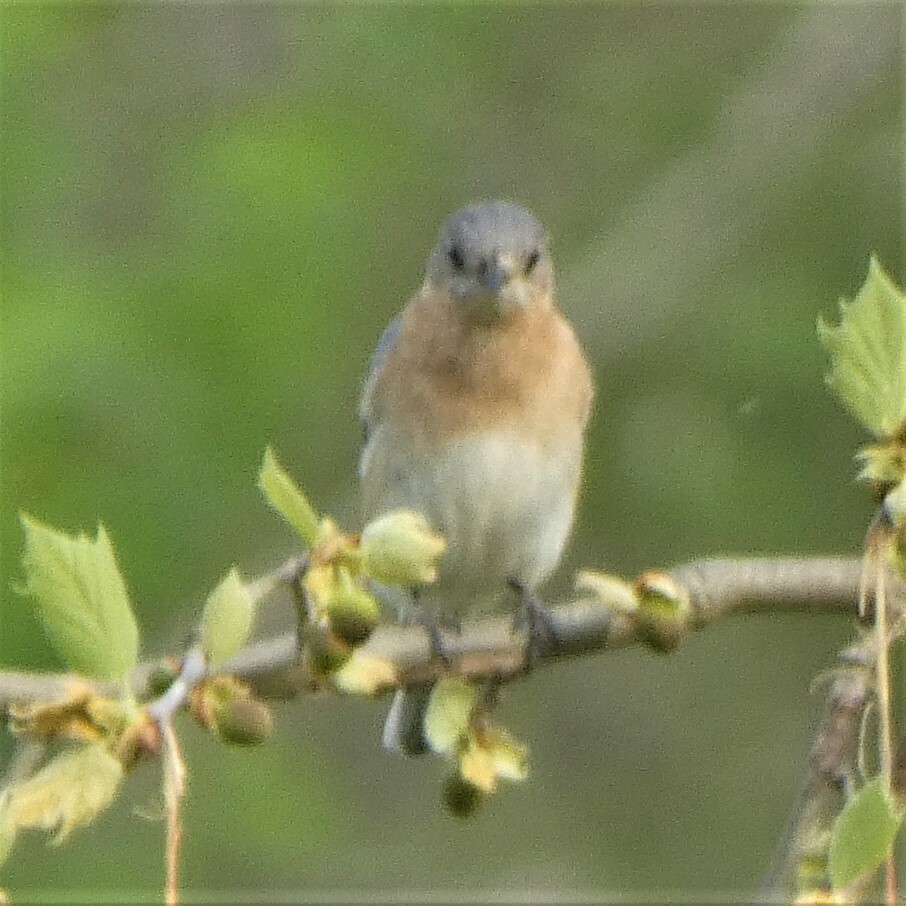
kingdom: Animalia
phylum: Chordata
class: Aves
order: Passeriformes
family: Turdidae
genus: Sialia
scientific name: Sialia sialis
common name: Eastern bluebird
